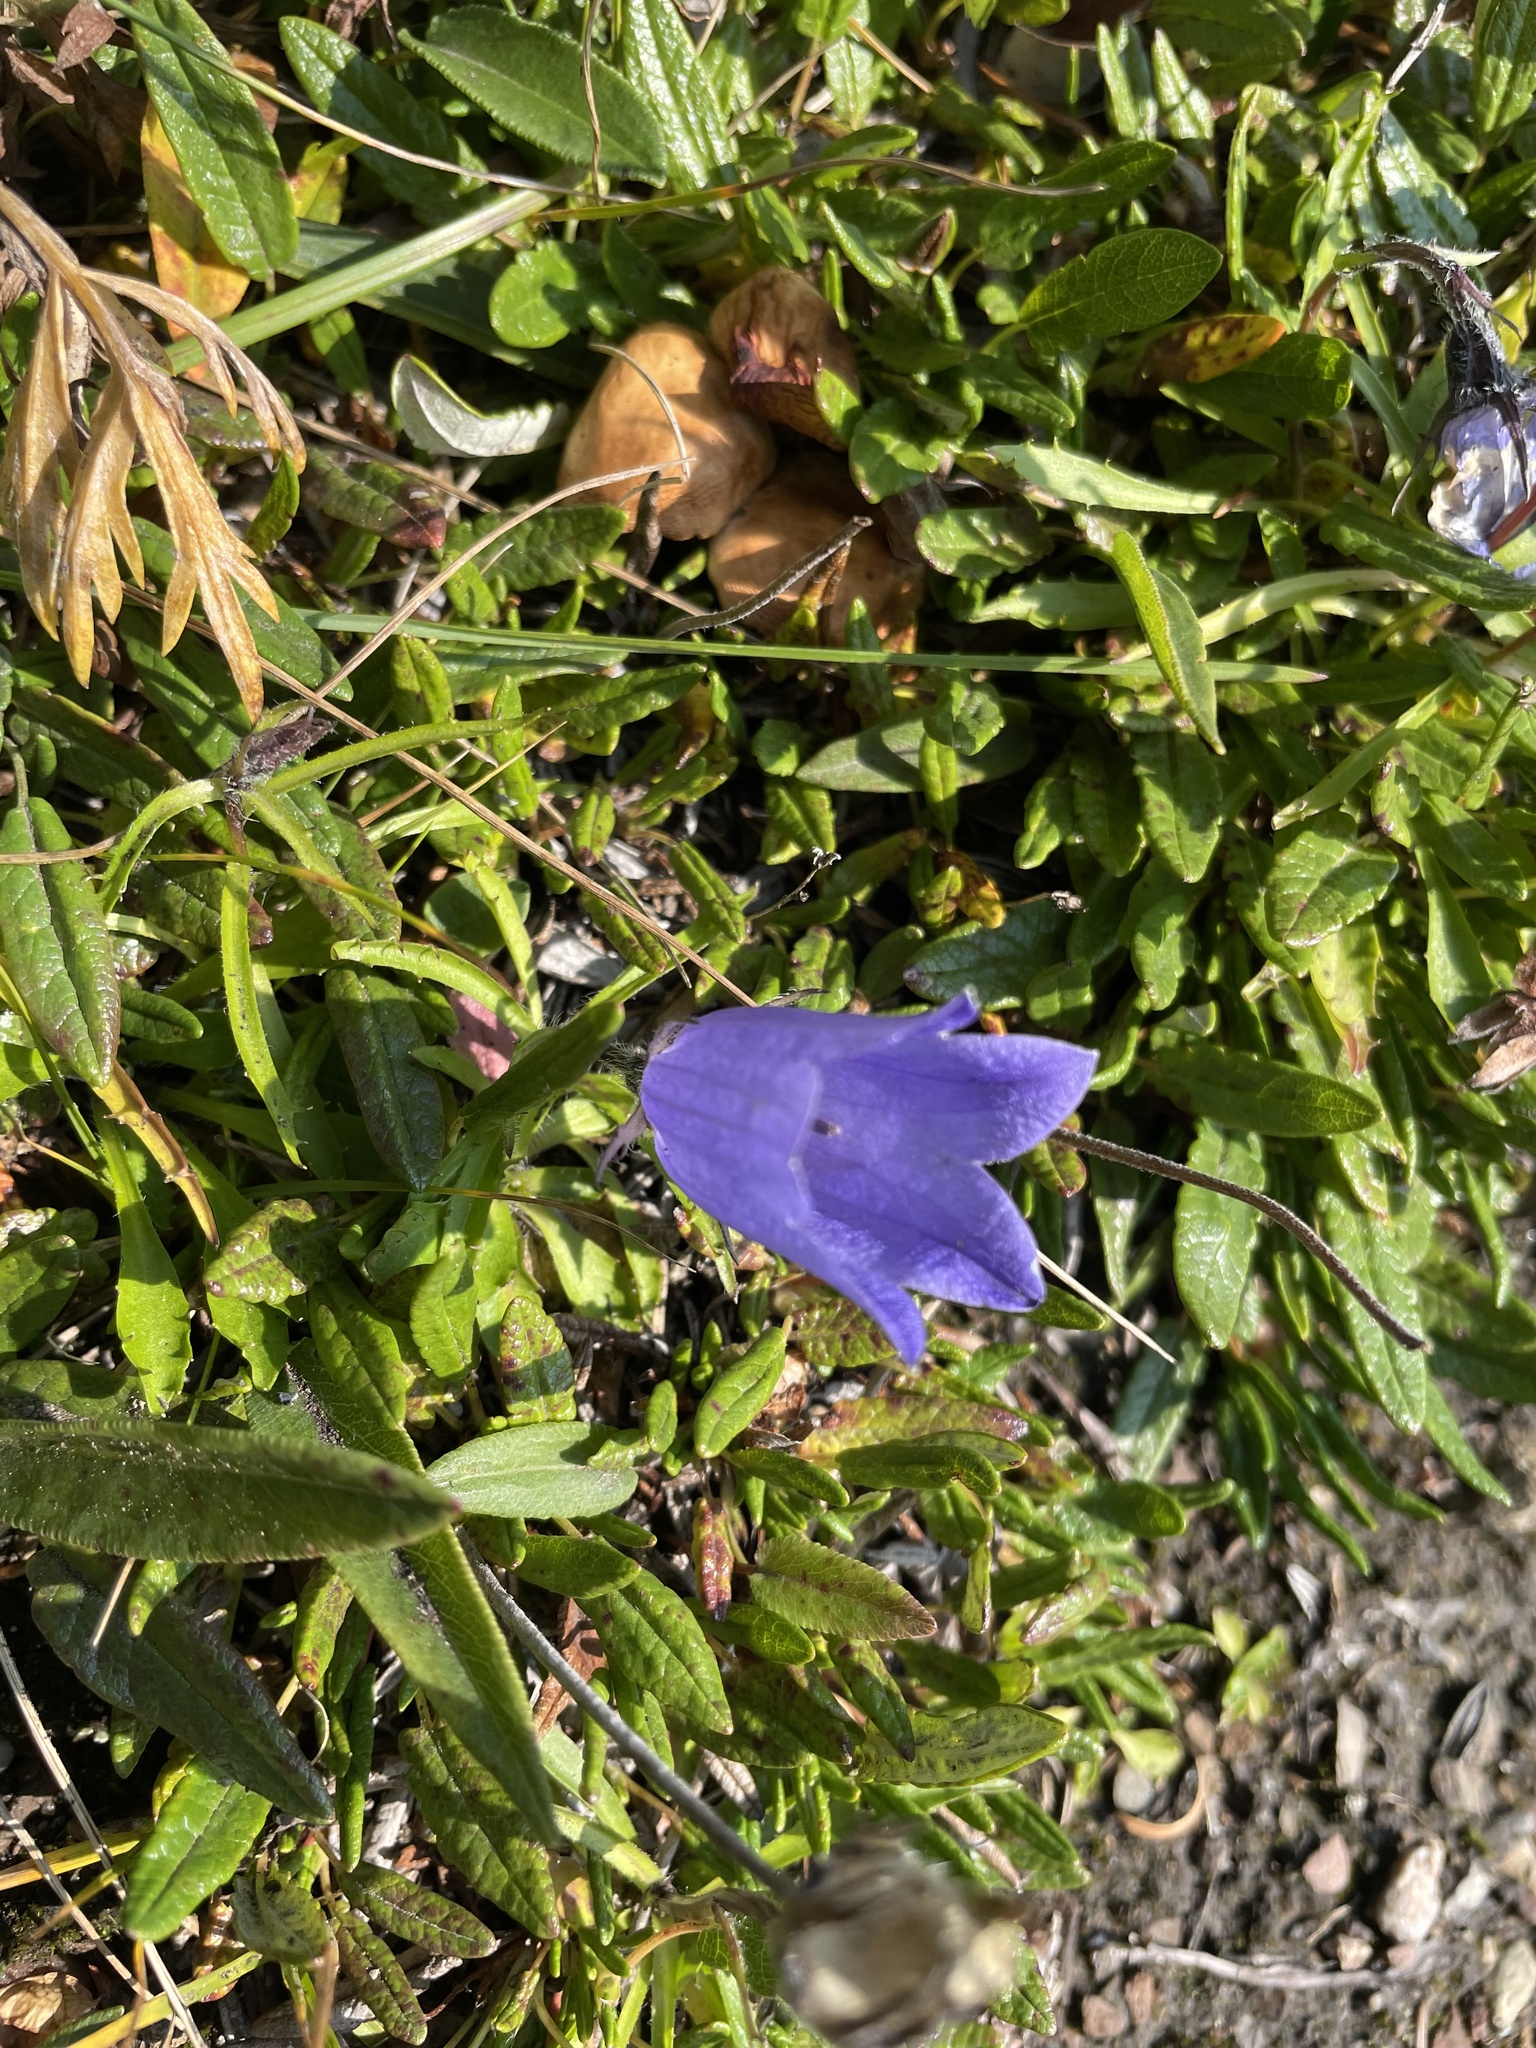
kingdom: Plantae
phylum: Tracheophyta
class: Magnoliopsida
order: Asterales
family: Campanulaceae
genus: Campanula
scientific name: Campanula lasiocarpa
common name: Mountain harebell
